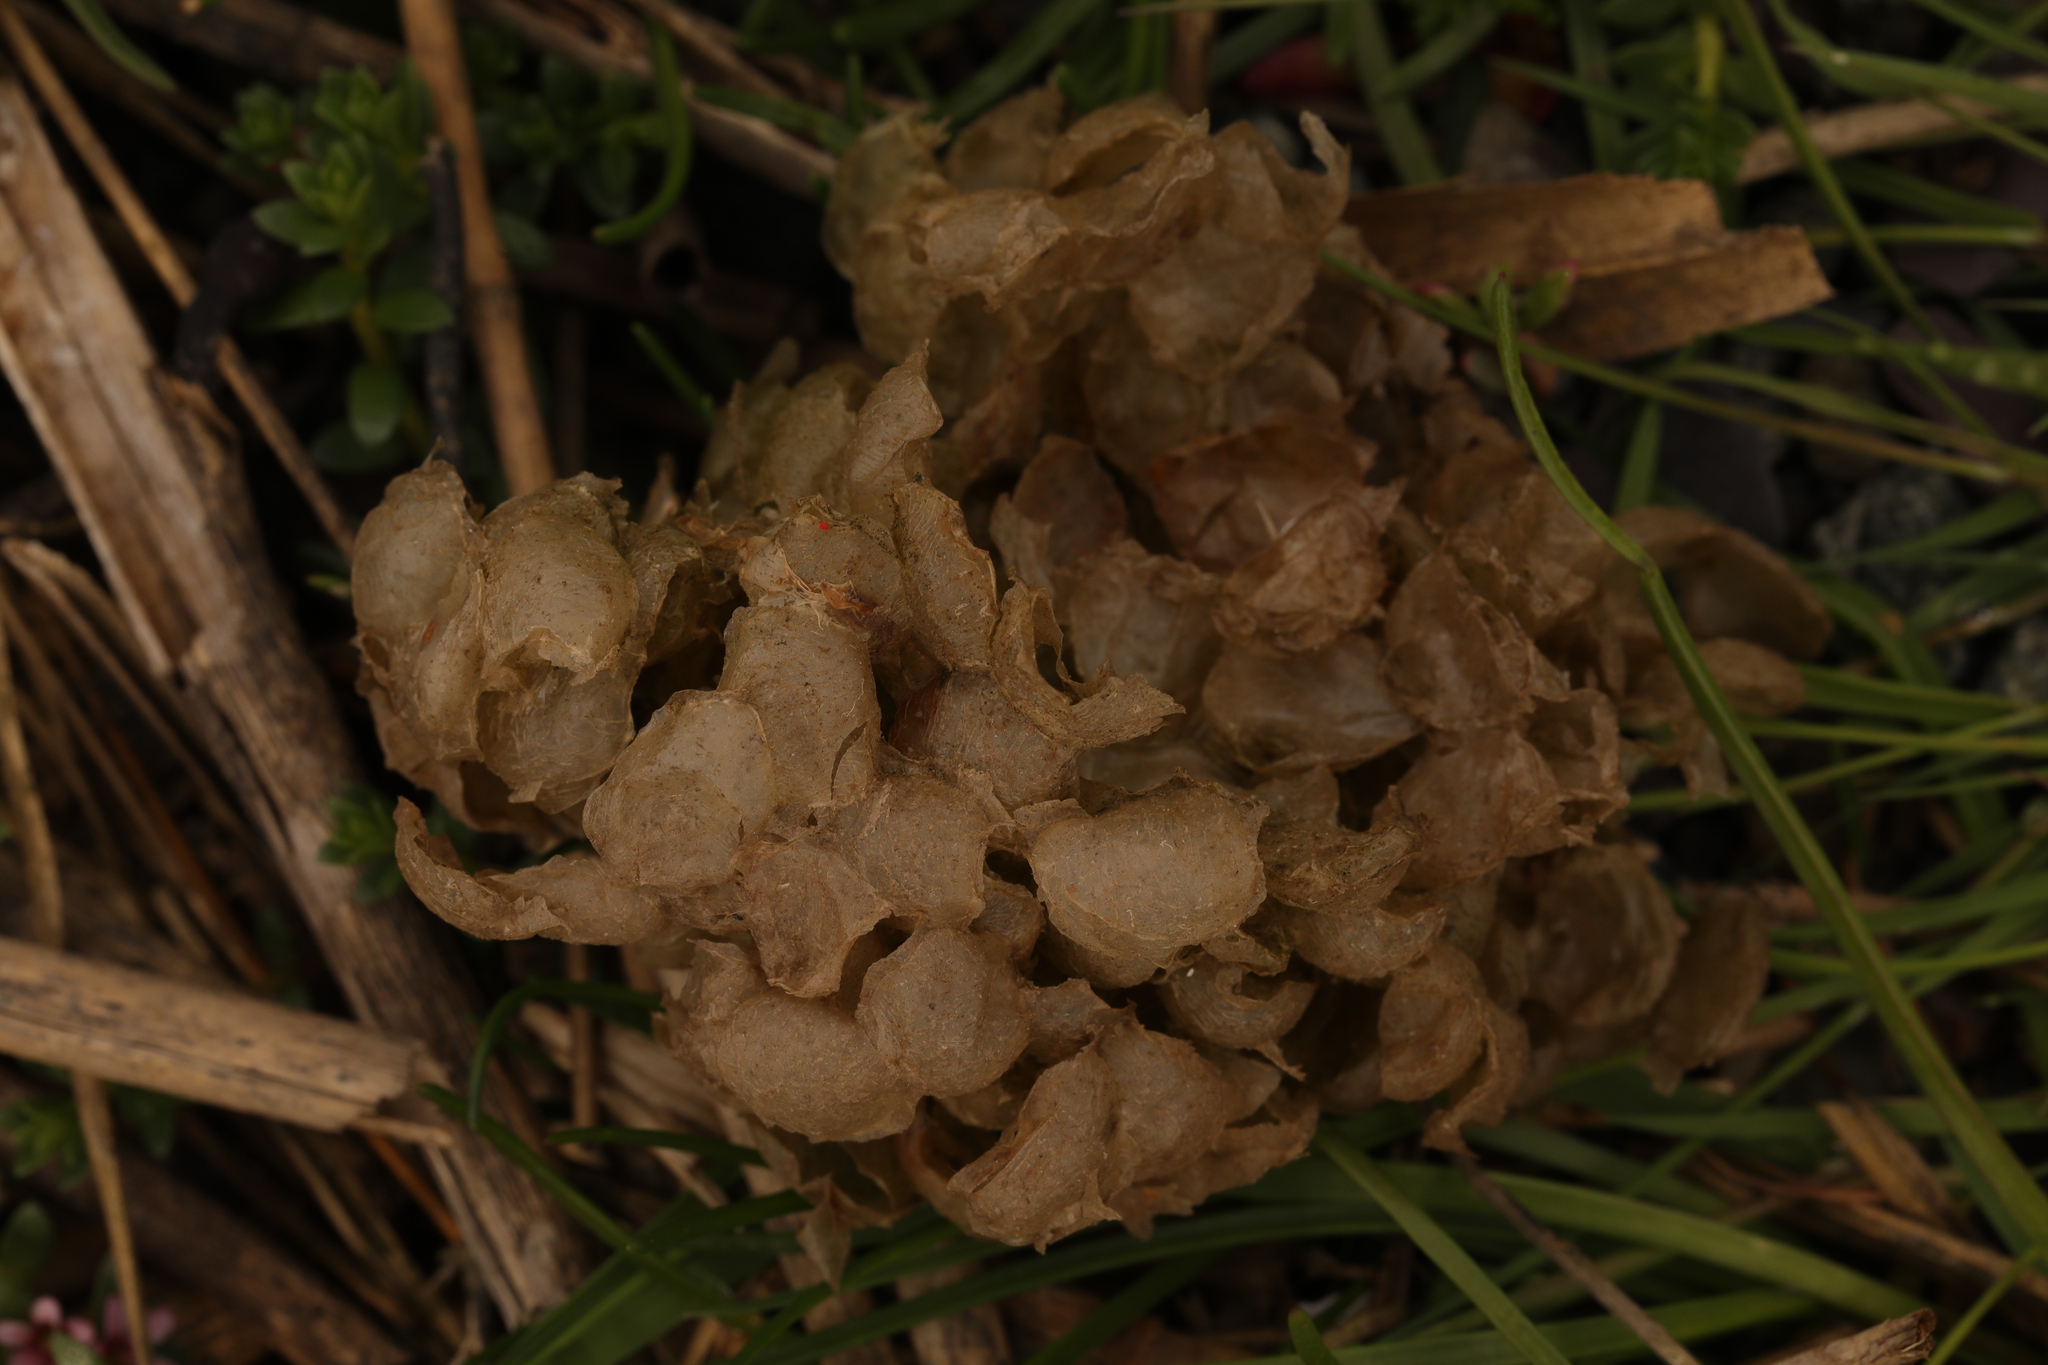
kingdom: Animalia
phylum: Mollusca
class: Gastropoda
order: Neogastropoda
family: Buccinidae
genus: Buccinum
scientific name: Buccinum undatum
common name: Common whelk
